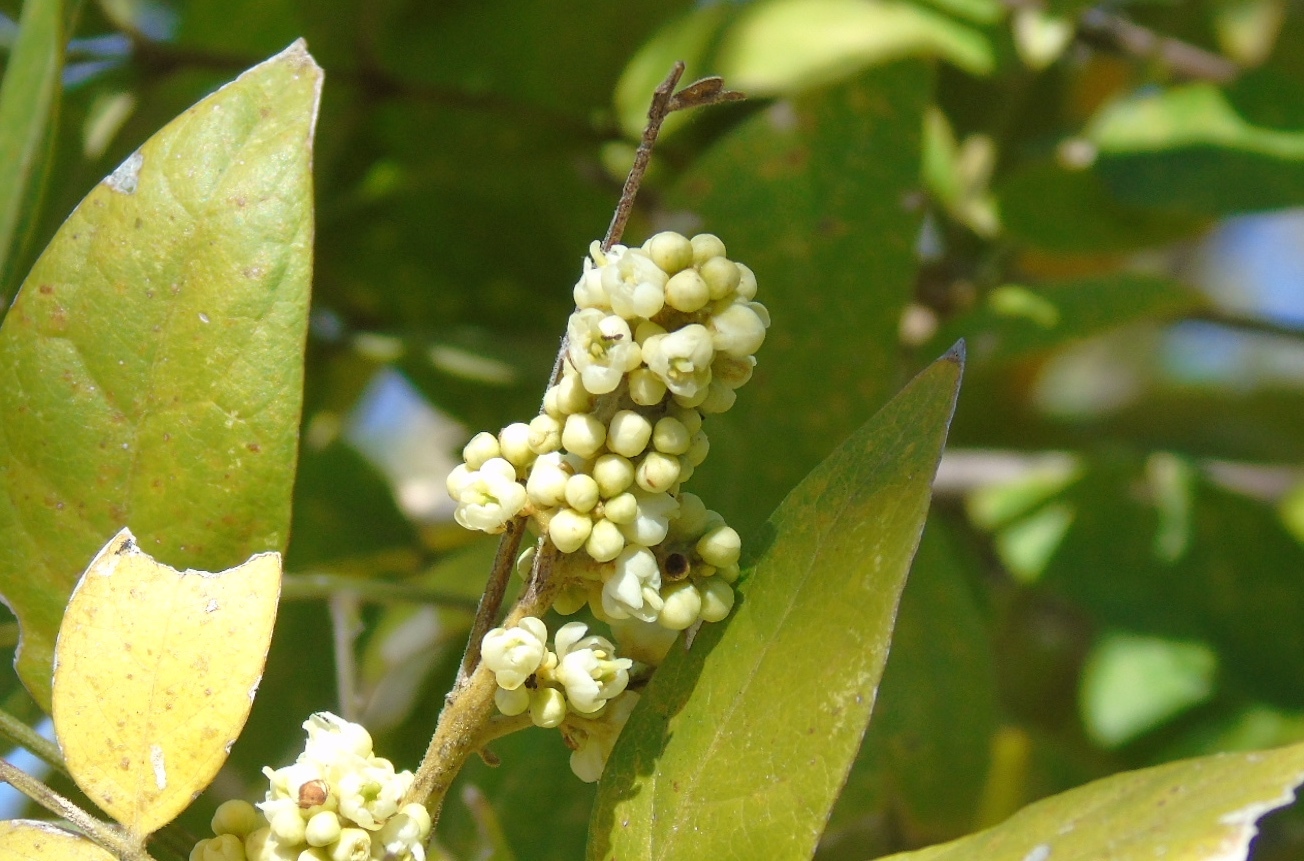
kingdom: Plantae
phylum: Tracheophyta
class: Magnoliopsida
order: Sapindales
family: Sapindaceae
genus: Sapindus
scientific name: Sapindus drummondii
